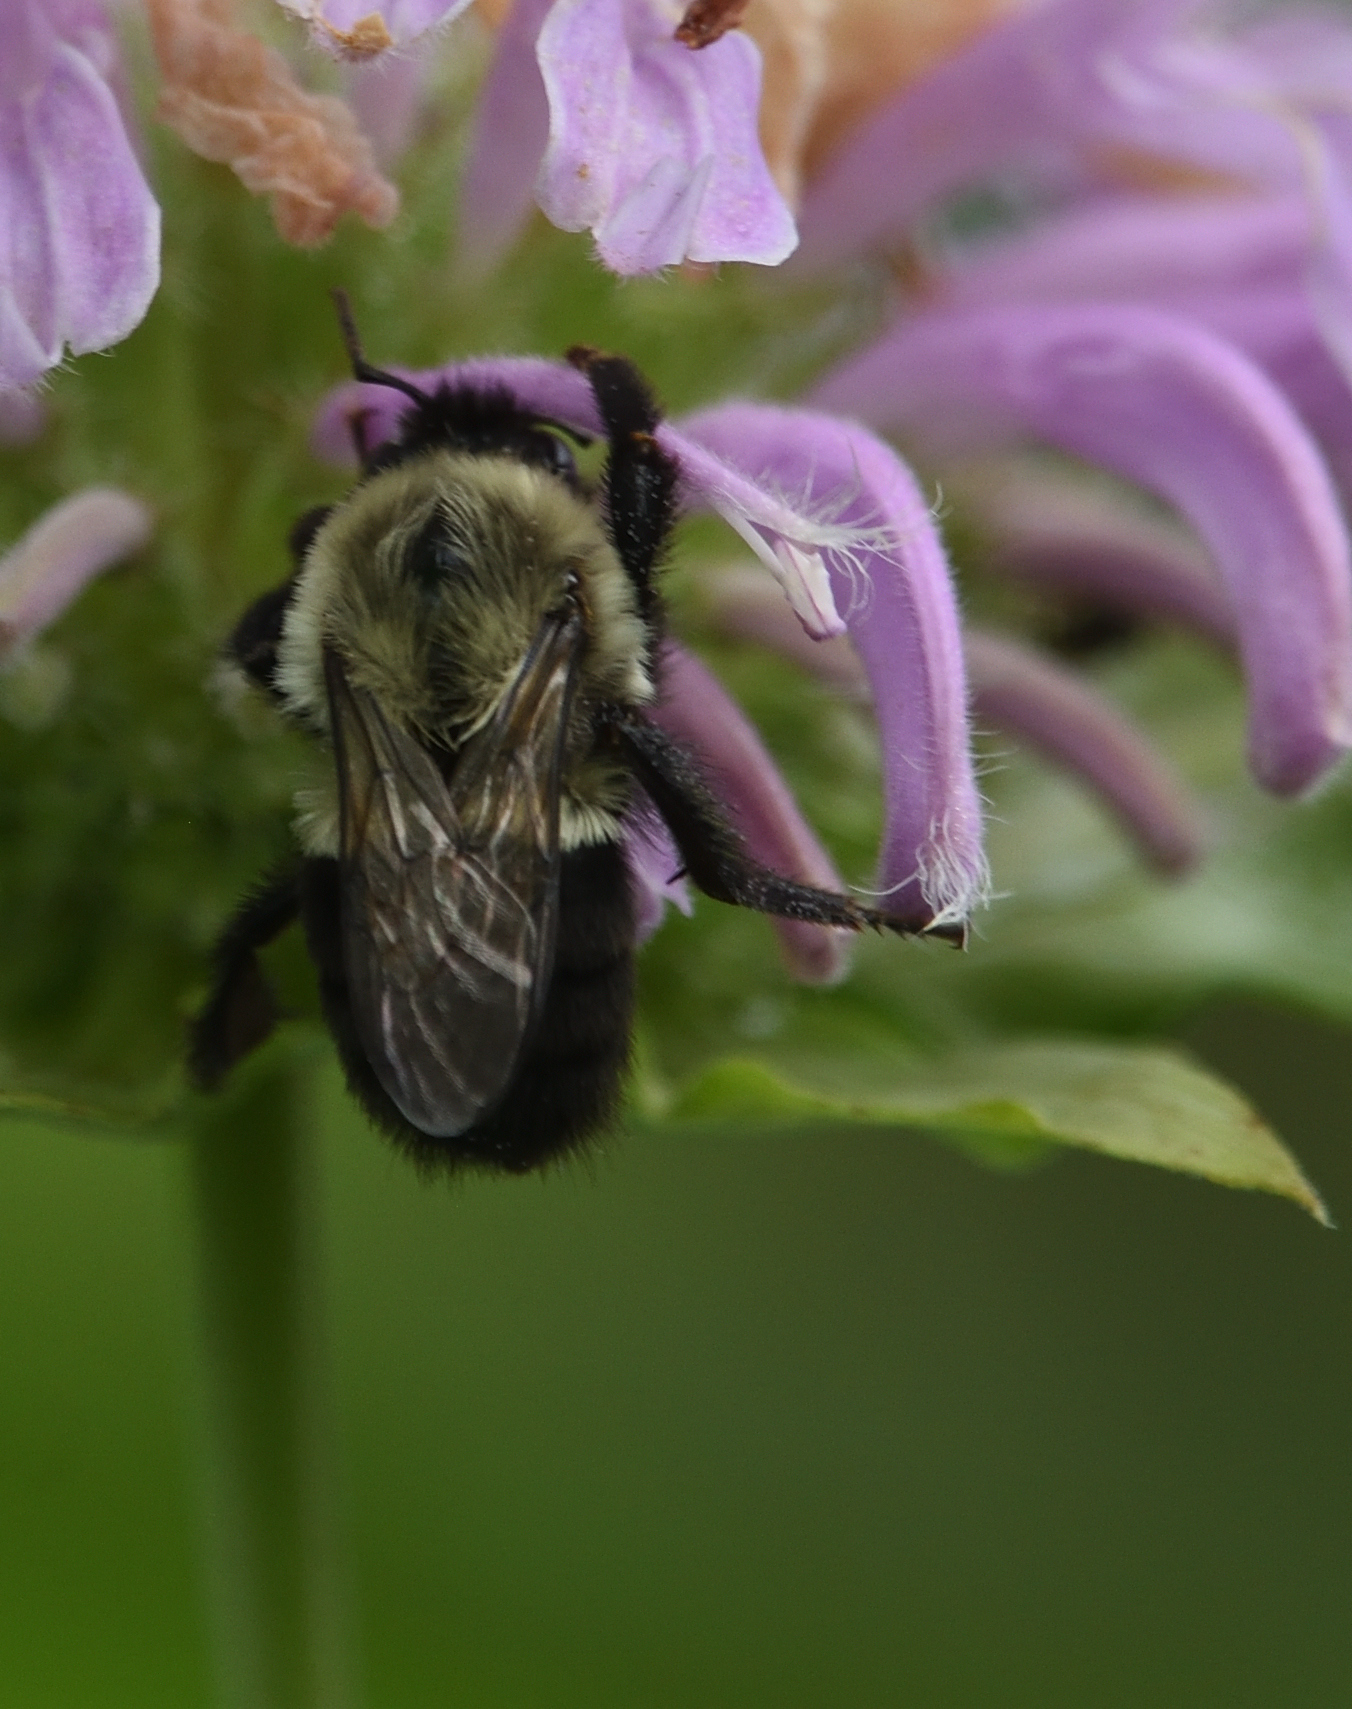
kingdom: Animalia
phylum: Arthropoda
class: Insecta
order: Hymenoptera
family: Apidae
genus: Bombus
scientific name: Bombus impatiens
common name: Common eastern bumble bee
